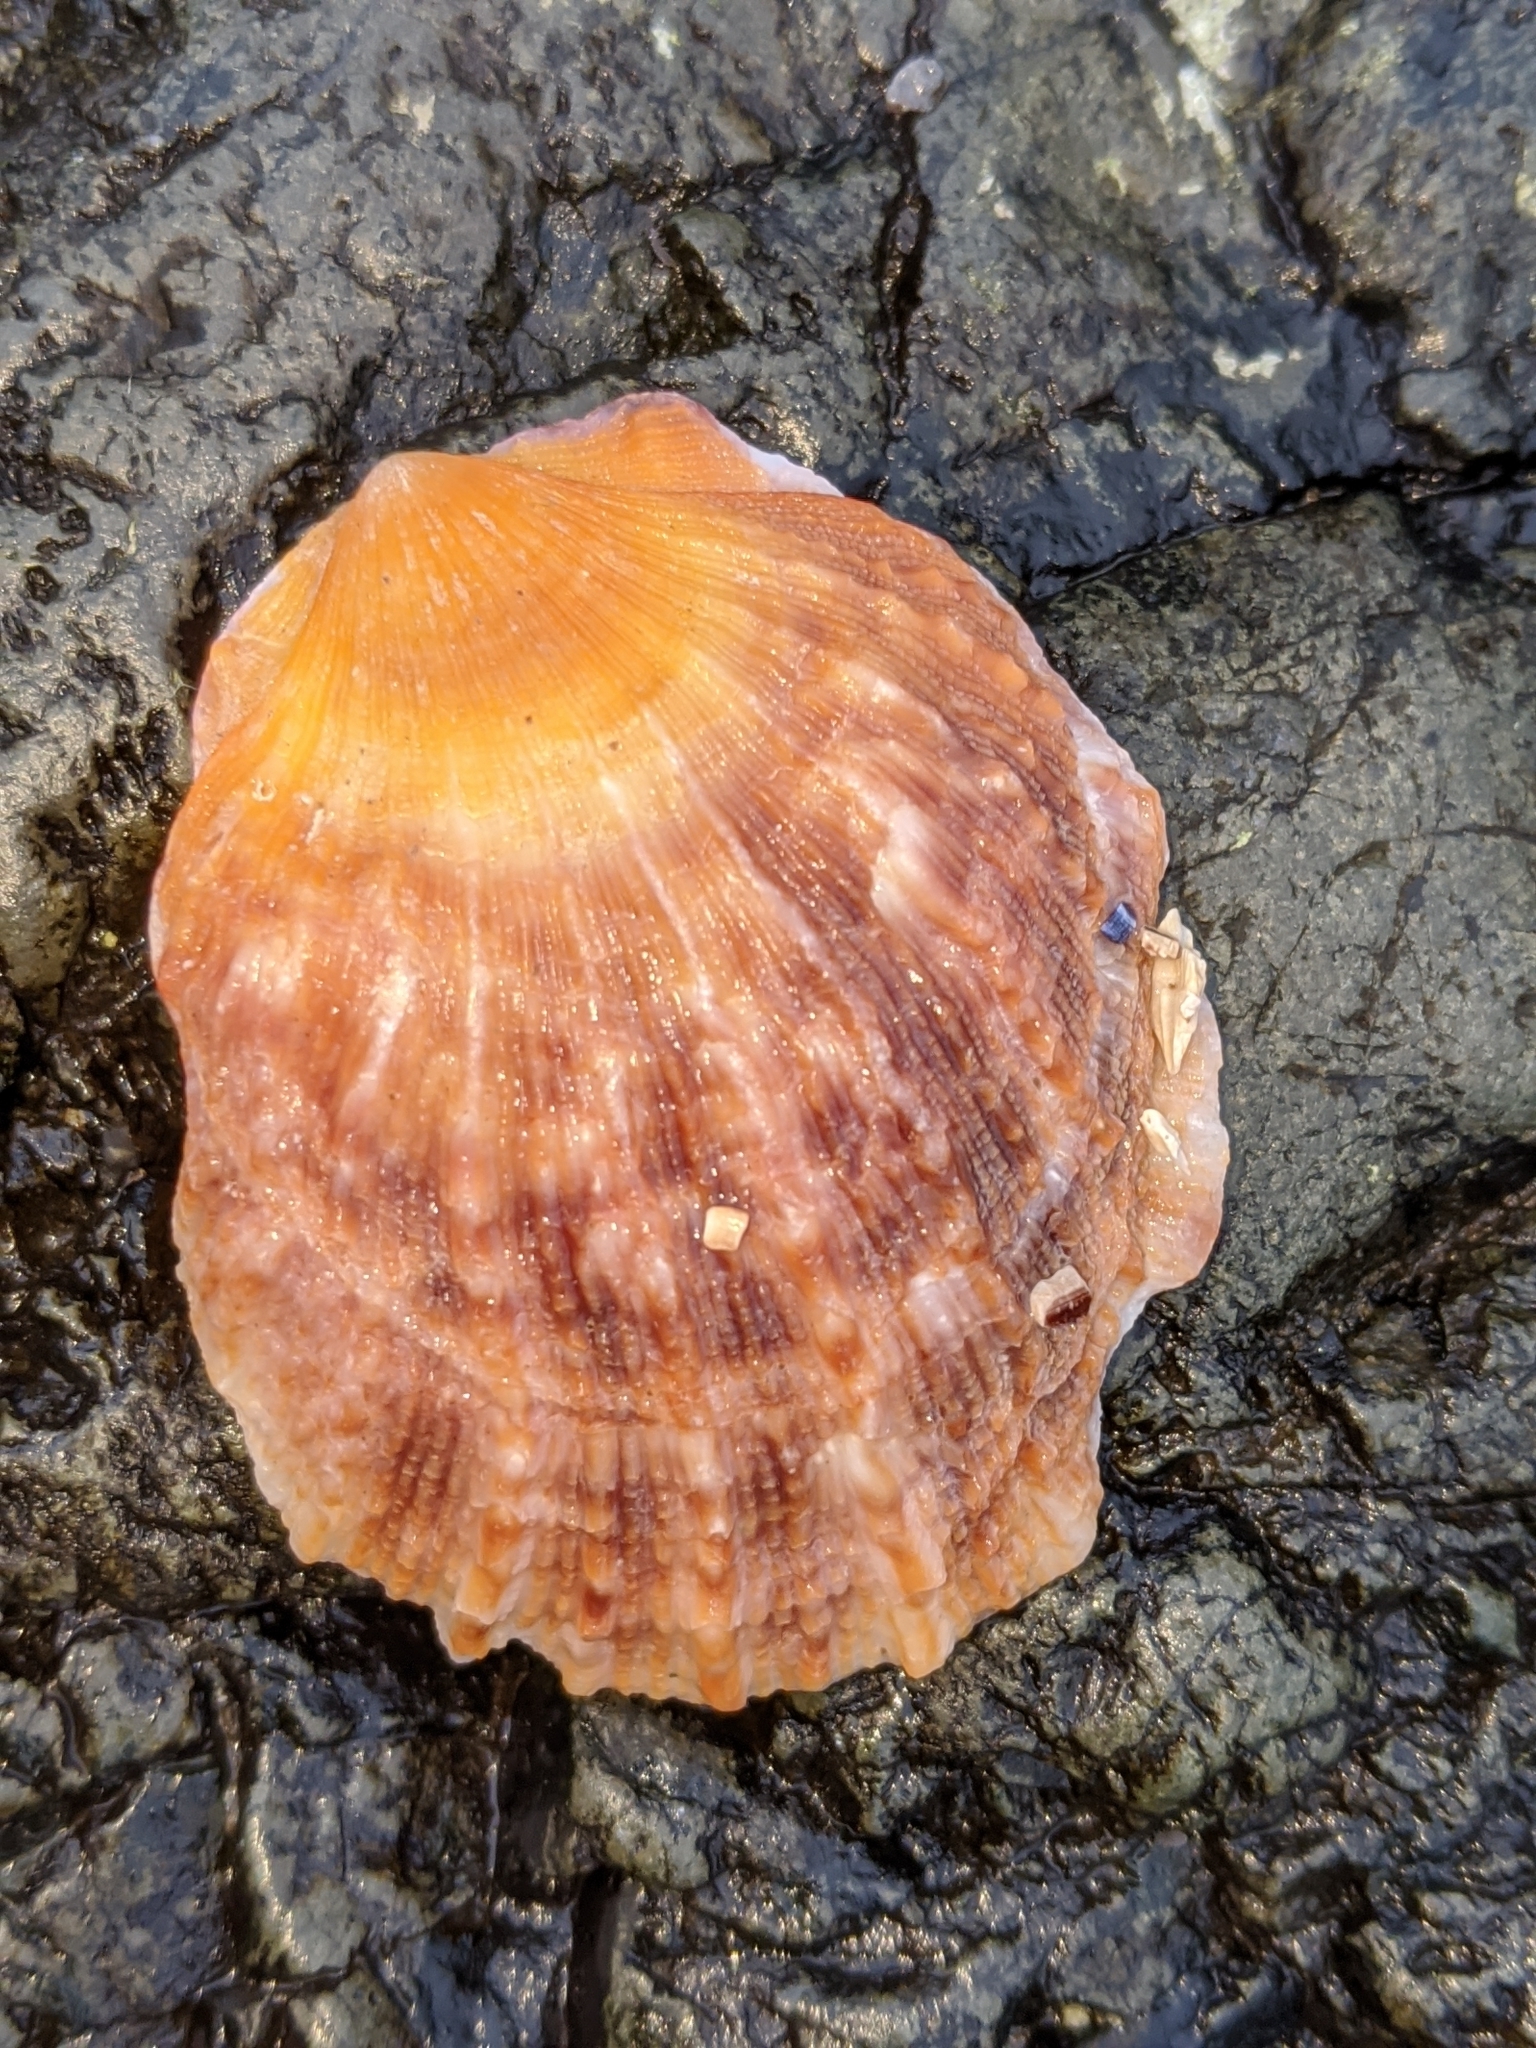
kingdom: Animalia
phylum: Mollusca
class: Bivalvia
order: Pectinida
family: Pectinidae
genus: Crassadoma
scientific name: Crassadoma gigantea
